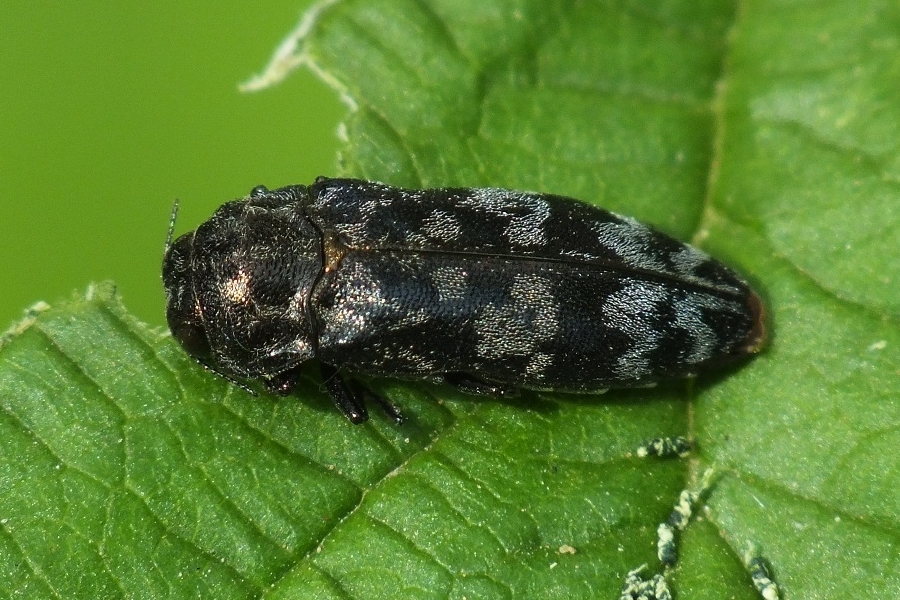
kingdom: Animalia
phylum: Arthropoda
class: Insecta
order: Coleoptera
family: Buprestidae
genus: Coraebus
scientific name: Coraebus rubi
